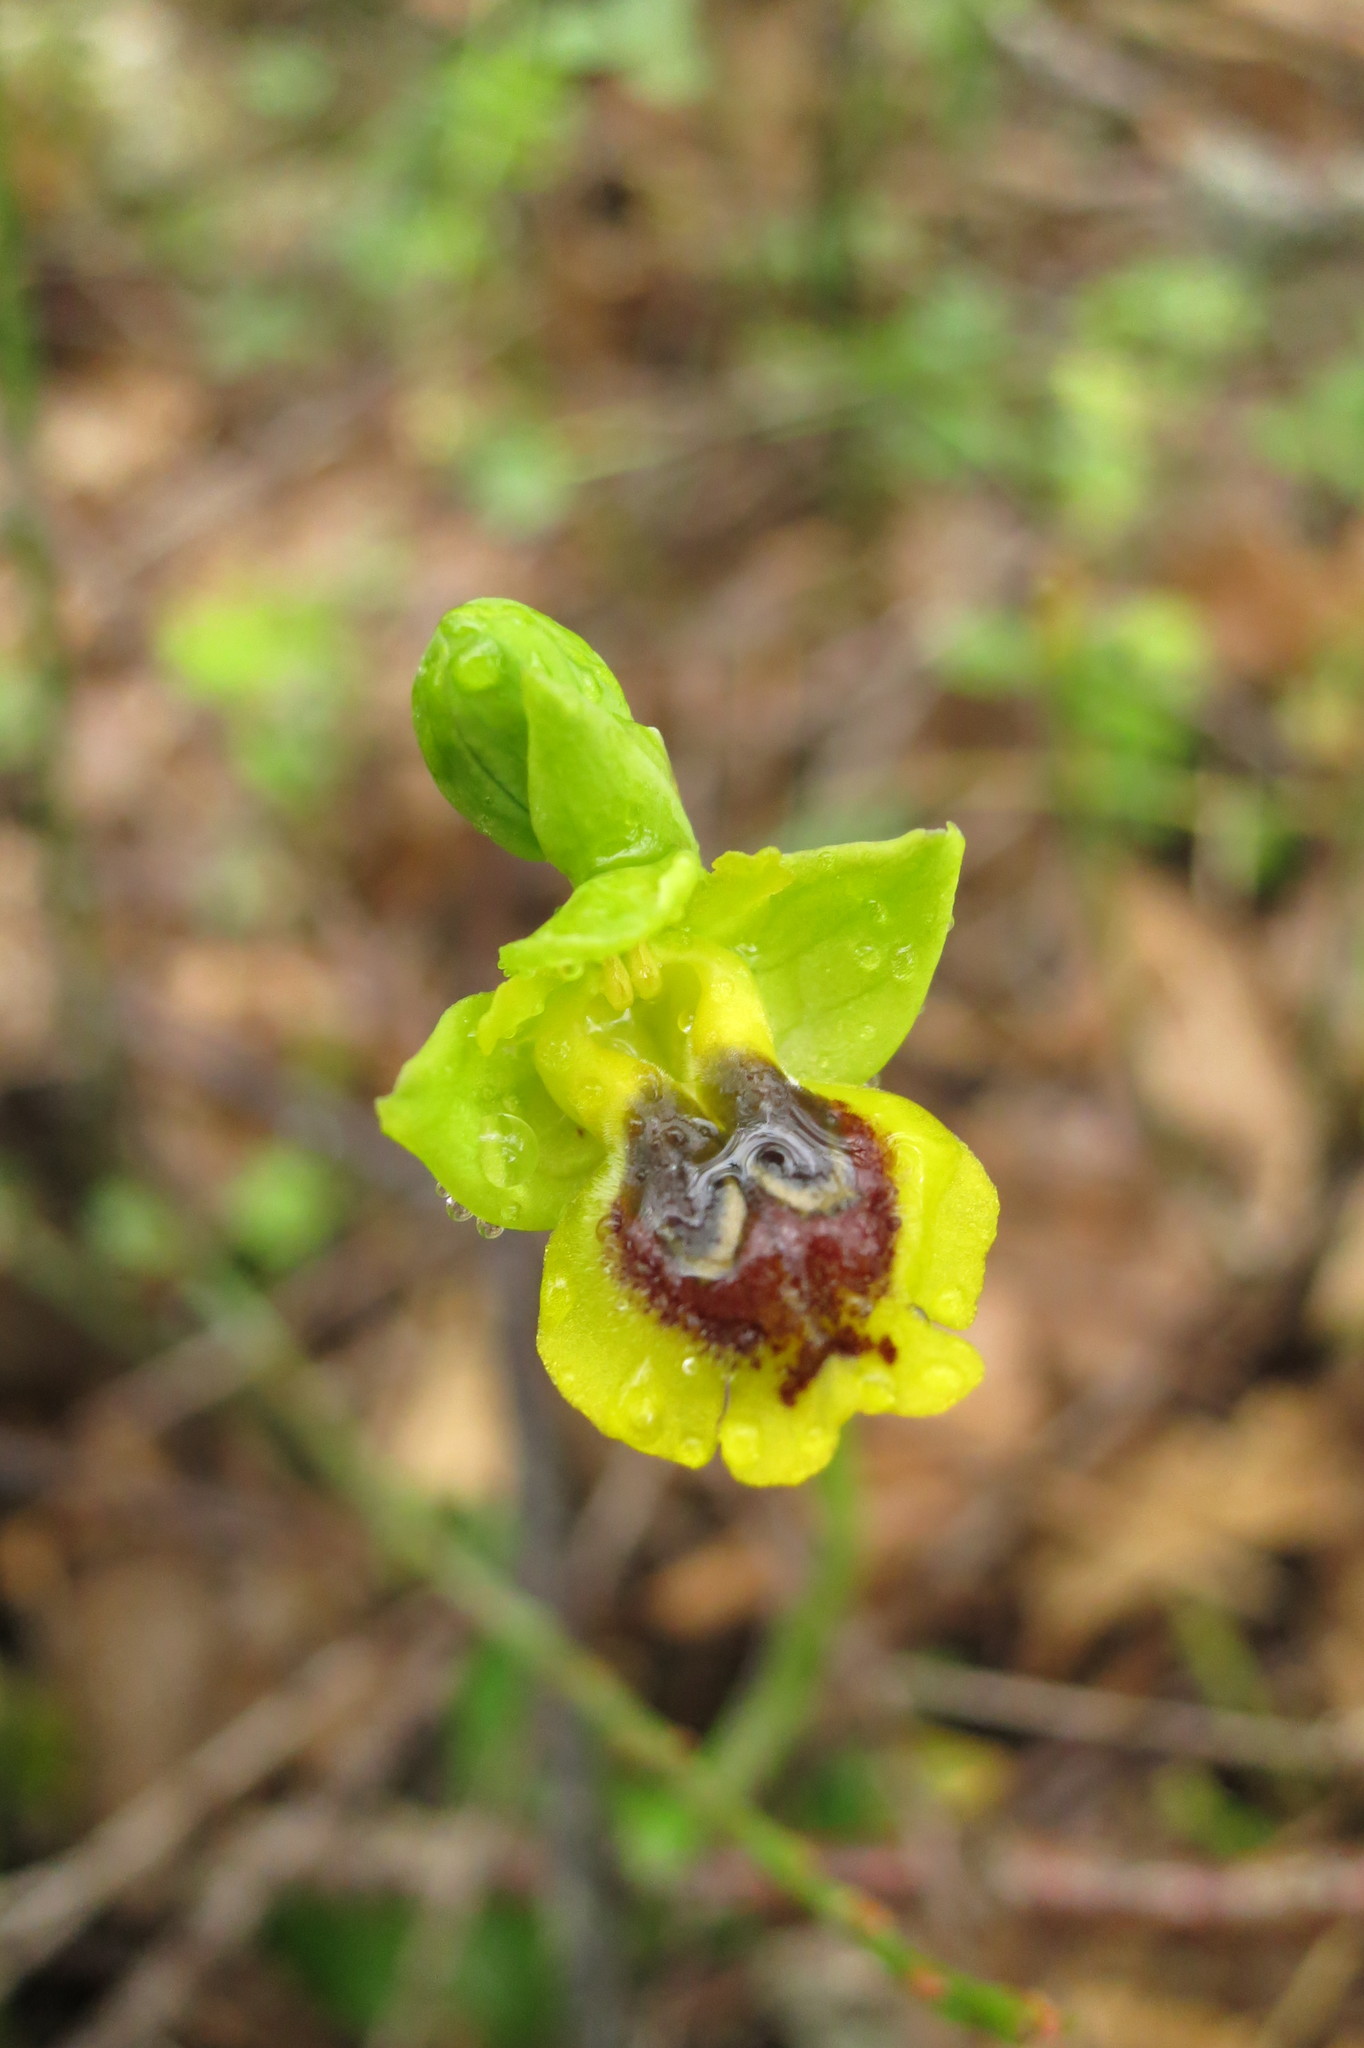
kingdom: Plantae
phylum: Tracheophyta
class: Liliopsida
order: Asparagales
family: Orchidaceae
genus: Ophrys
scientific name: Ophrys lutea
